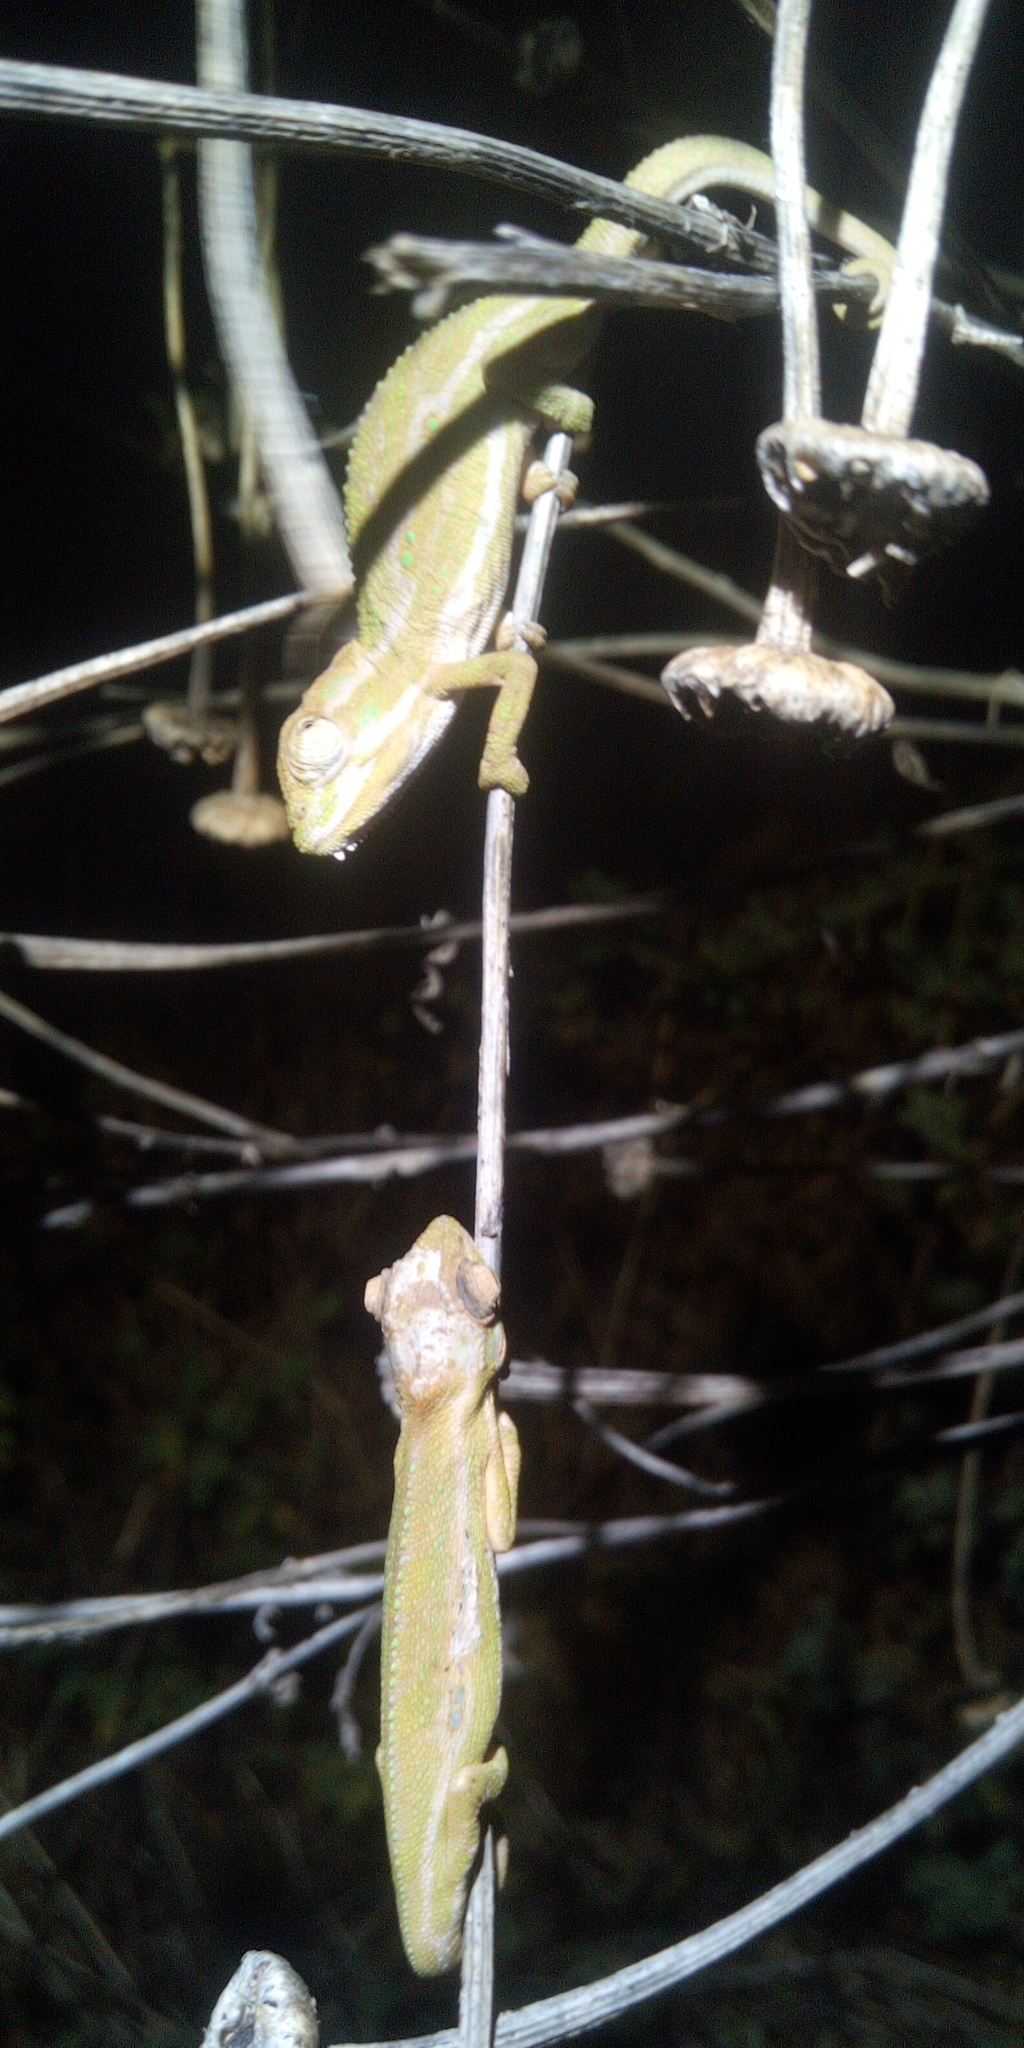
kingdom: Animalia
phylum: Chordata
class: Squamata
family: Chamaeleonidae
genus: Bradypodion
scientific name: Bradypodion pumilum
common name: Cape dwarf chameleon
